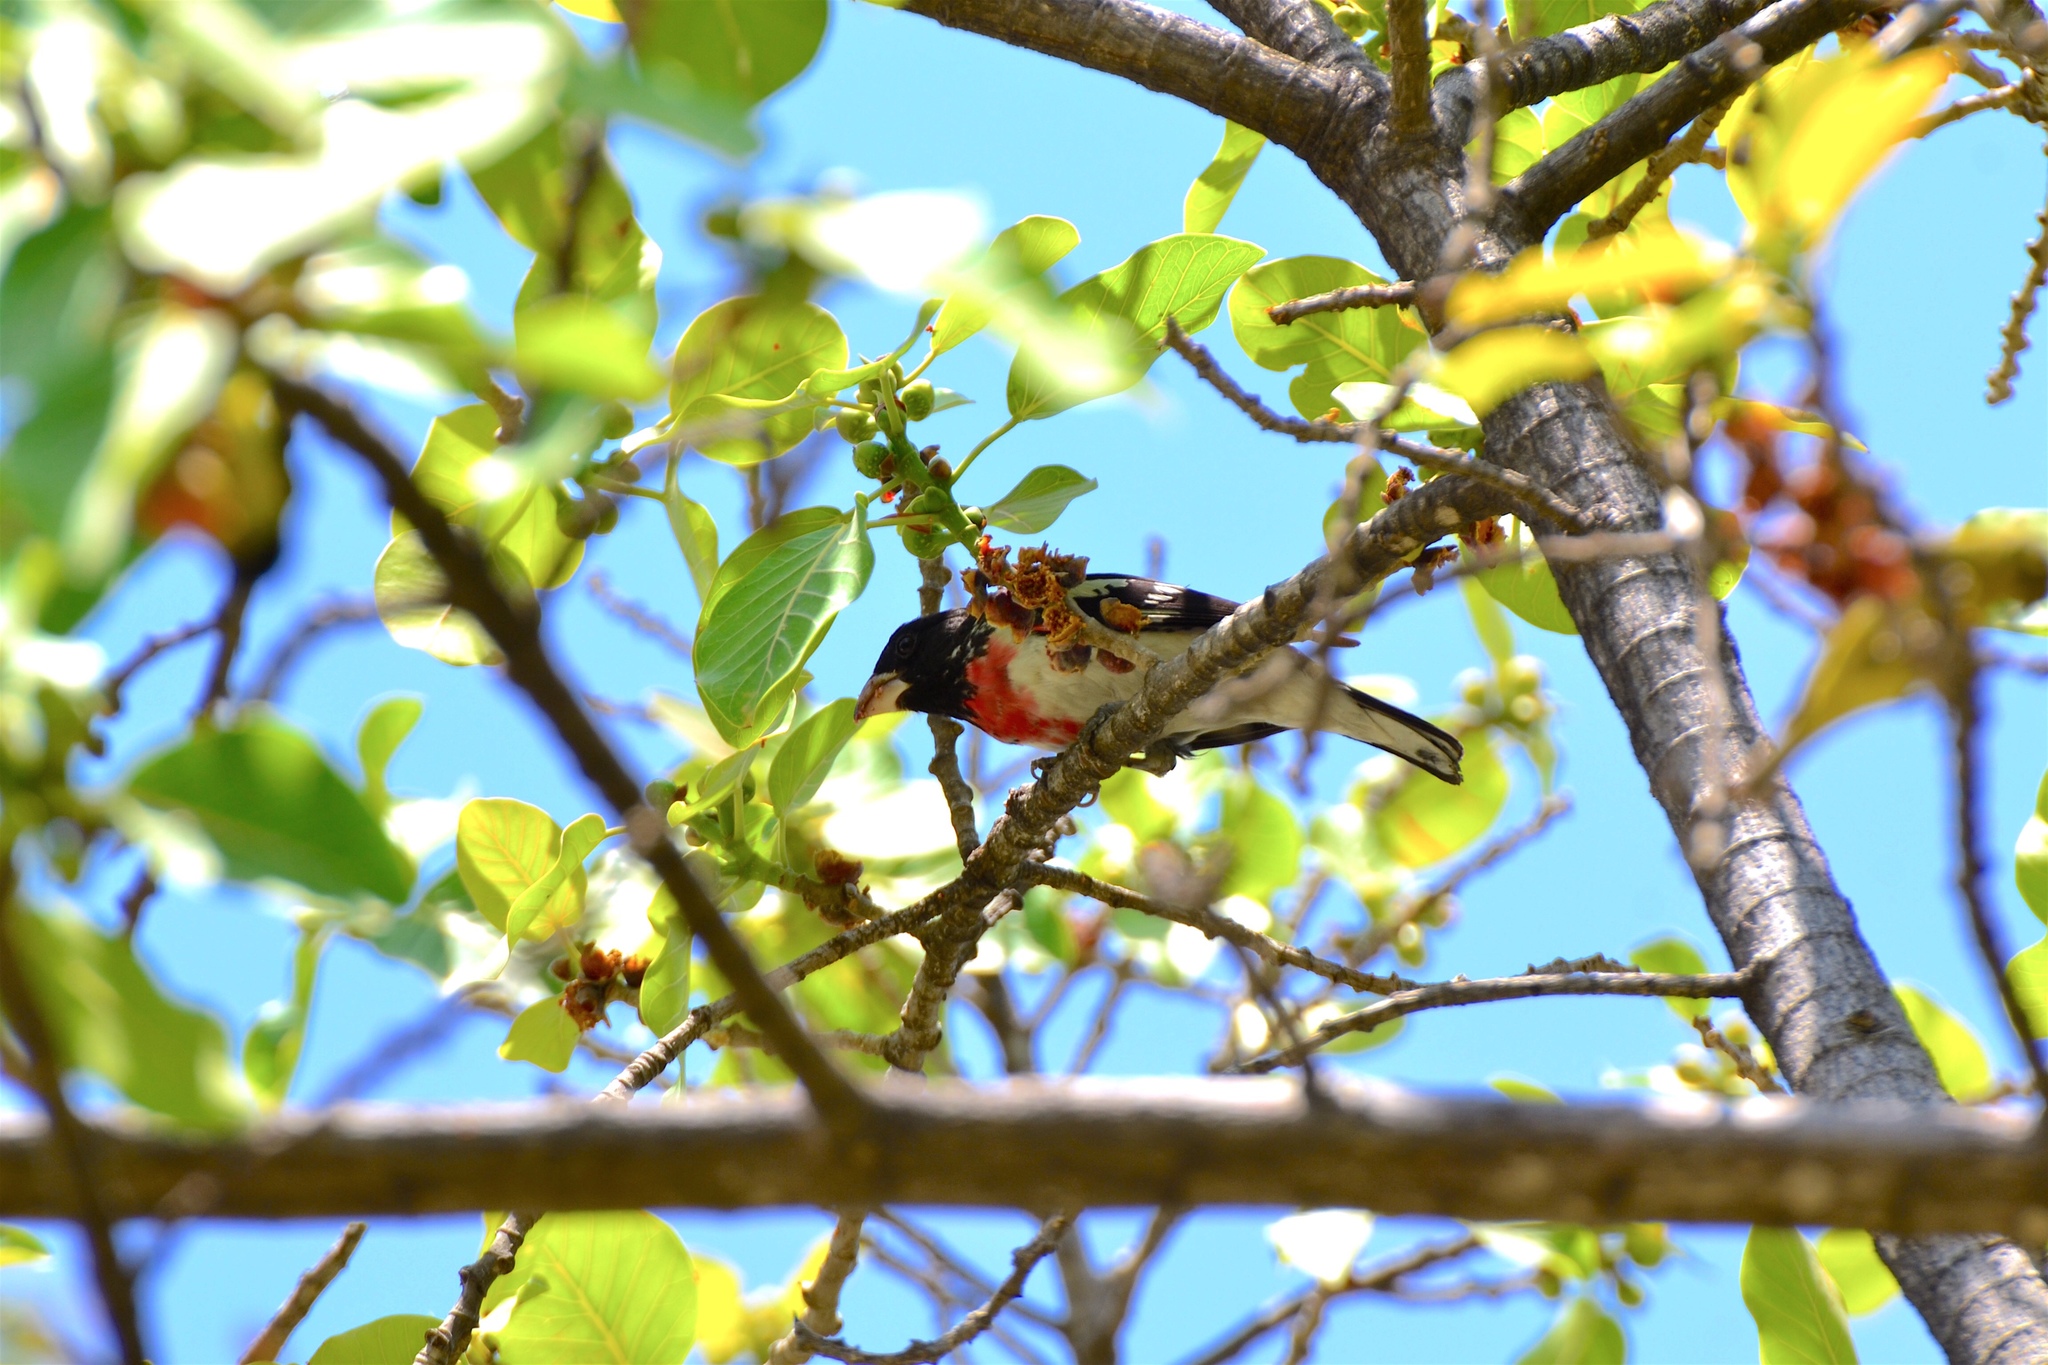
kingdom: Animalia
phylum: Chordata
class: Aves
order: Passeriformes
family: Cardinalidae
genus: Pheucticus
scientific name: Pheucticus ludovicianus
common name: Rose-breasted grosbeak
